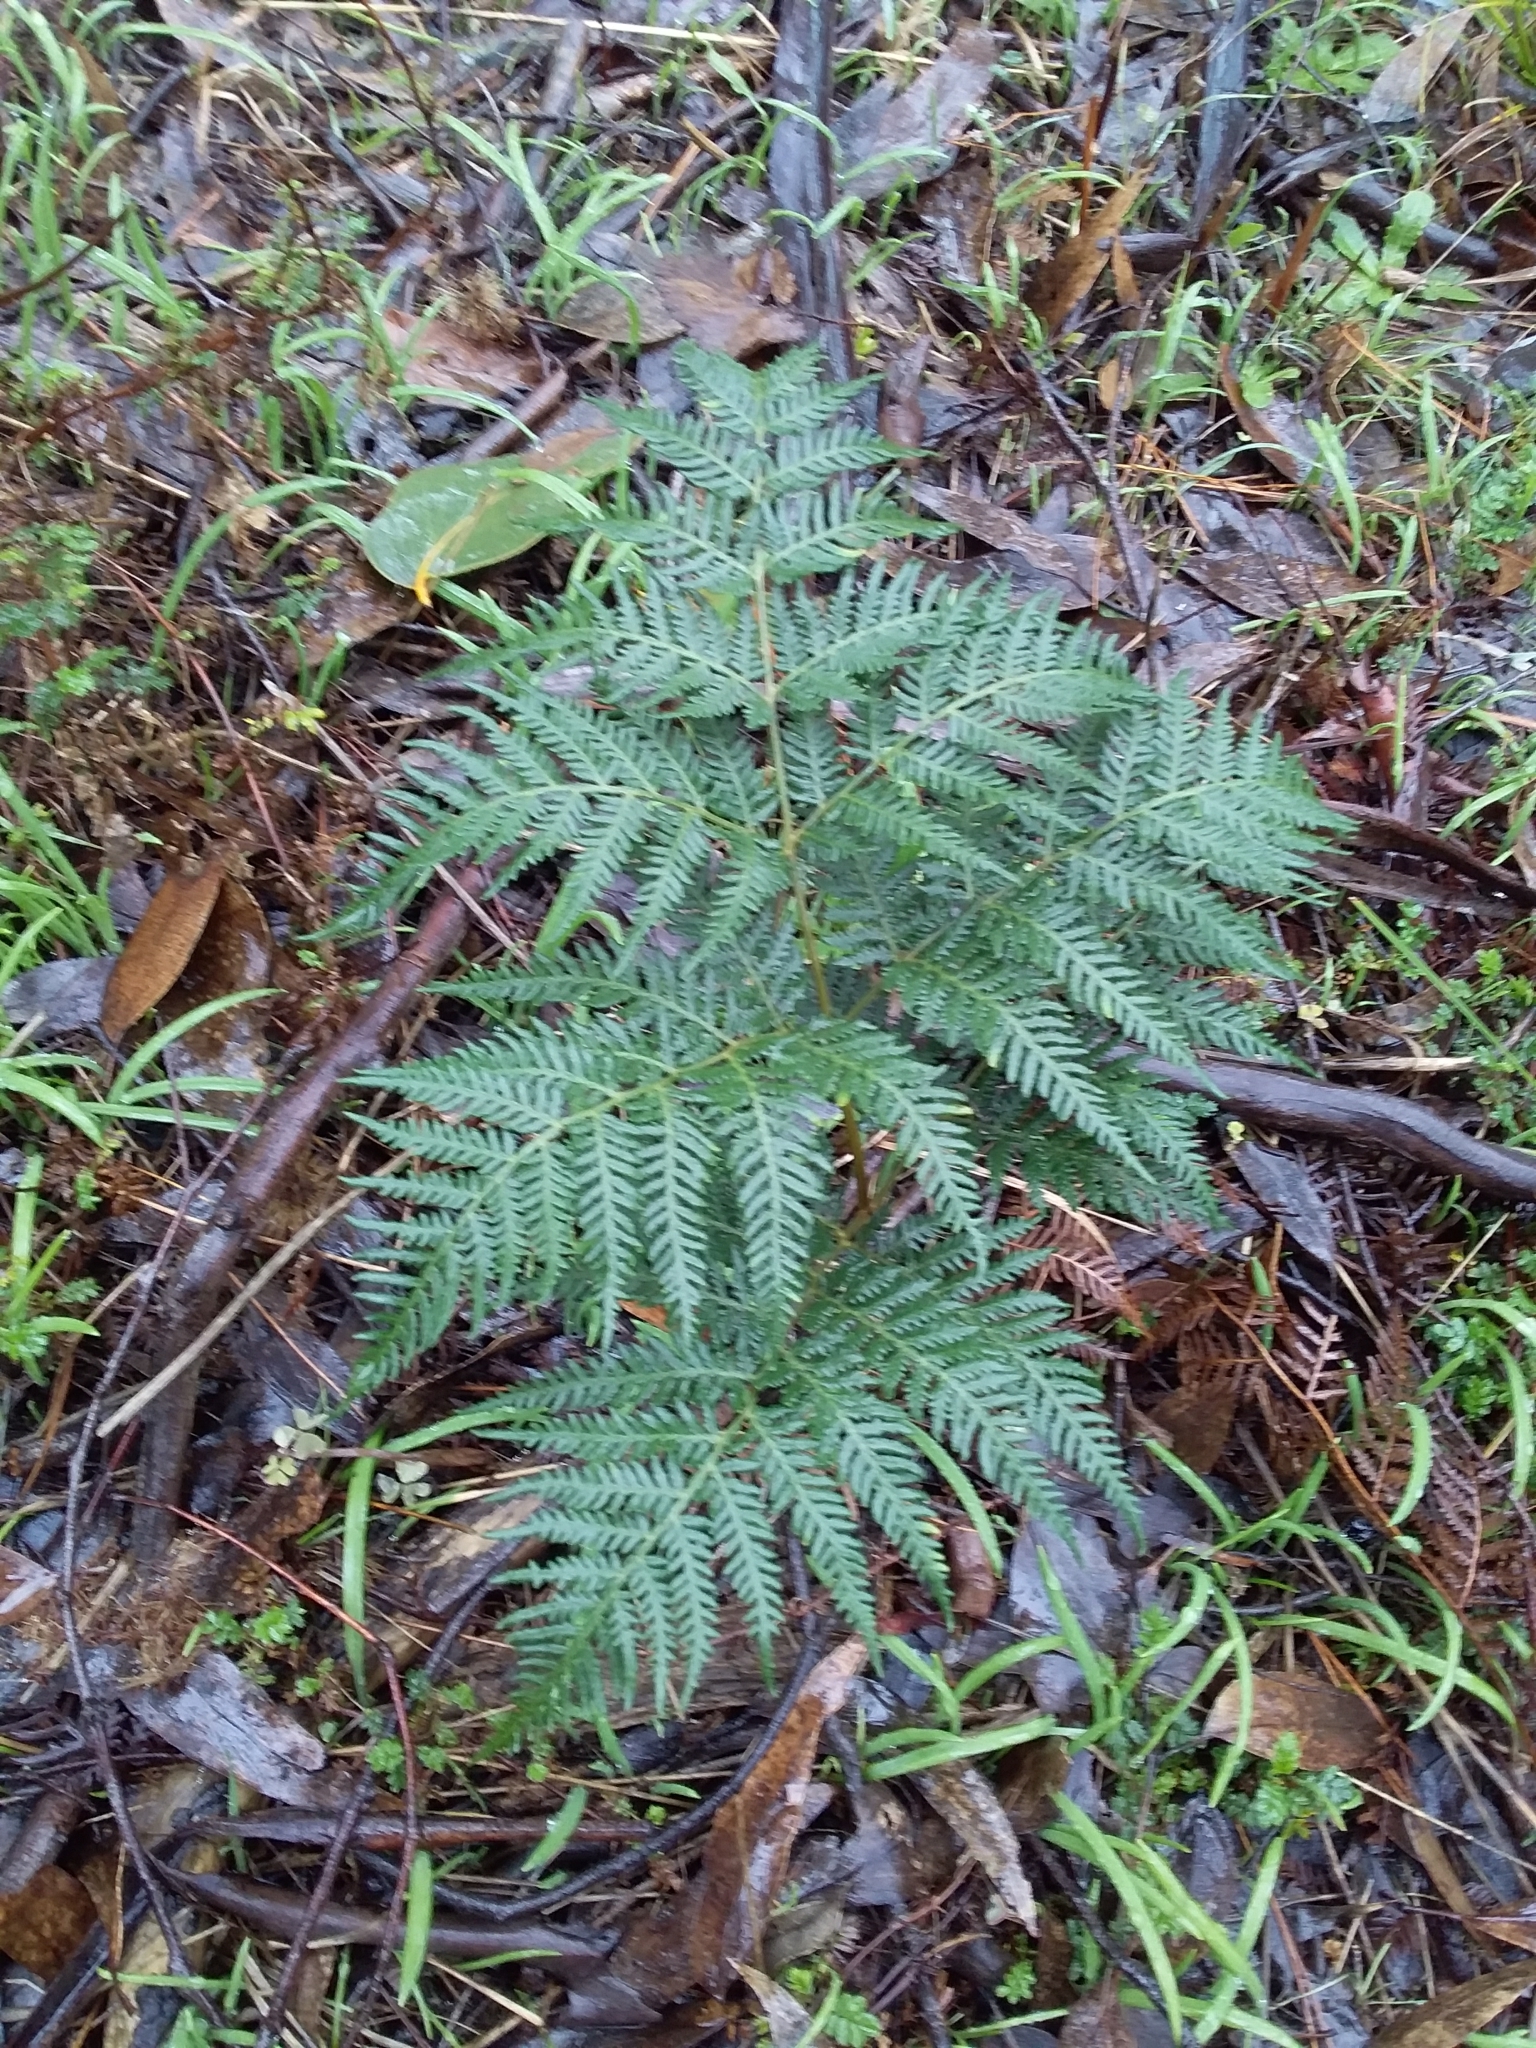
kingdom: Plantae
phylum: Tracheophyta
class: Polypodiopsida
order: Polypodiales
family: Dennstaedtiaceae
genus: Pteridium
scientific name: Pteridium esculentum
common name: Bracken fern
